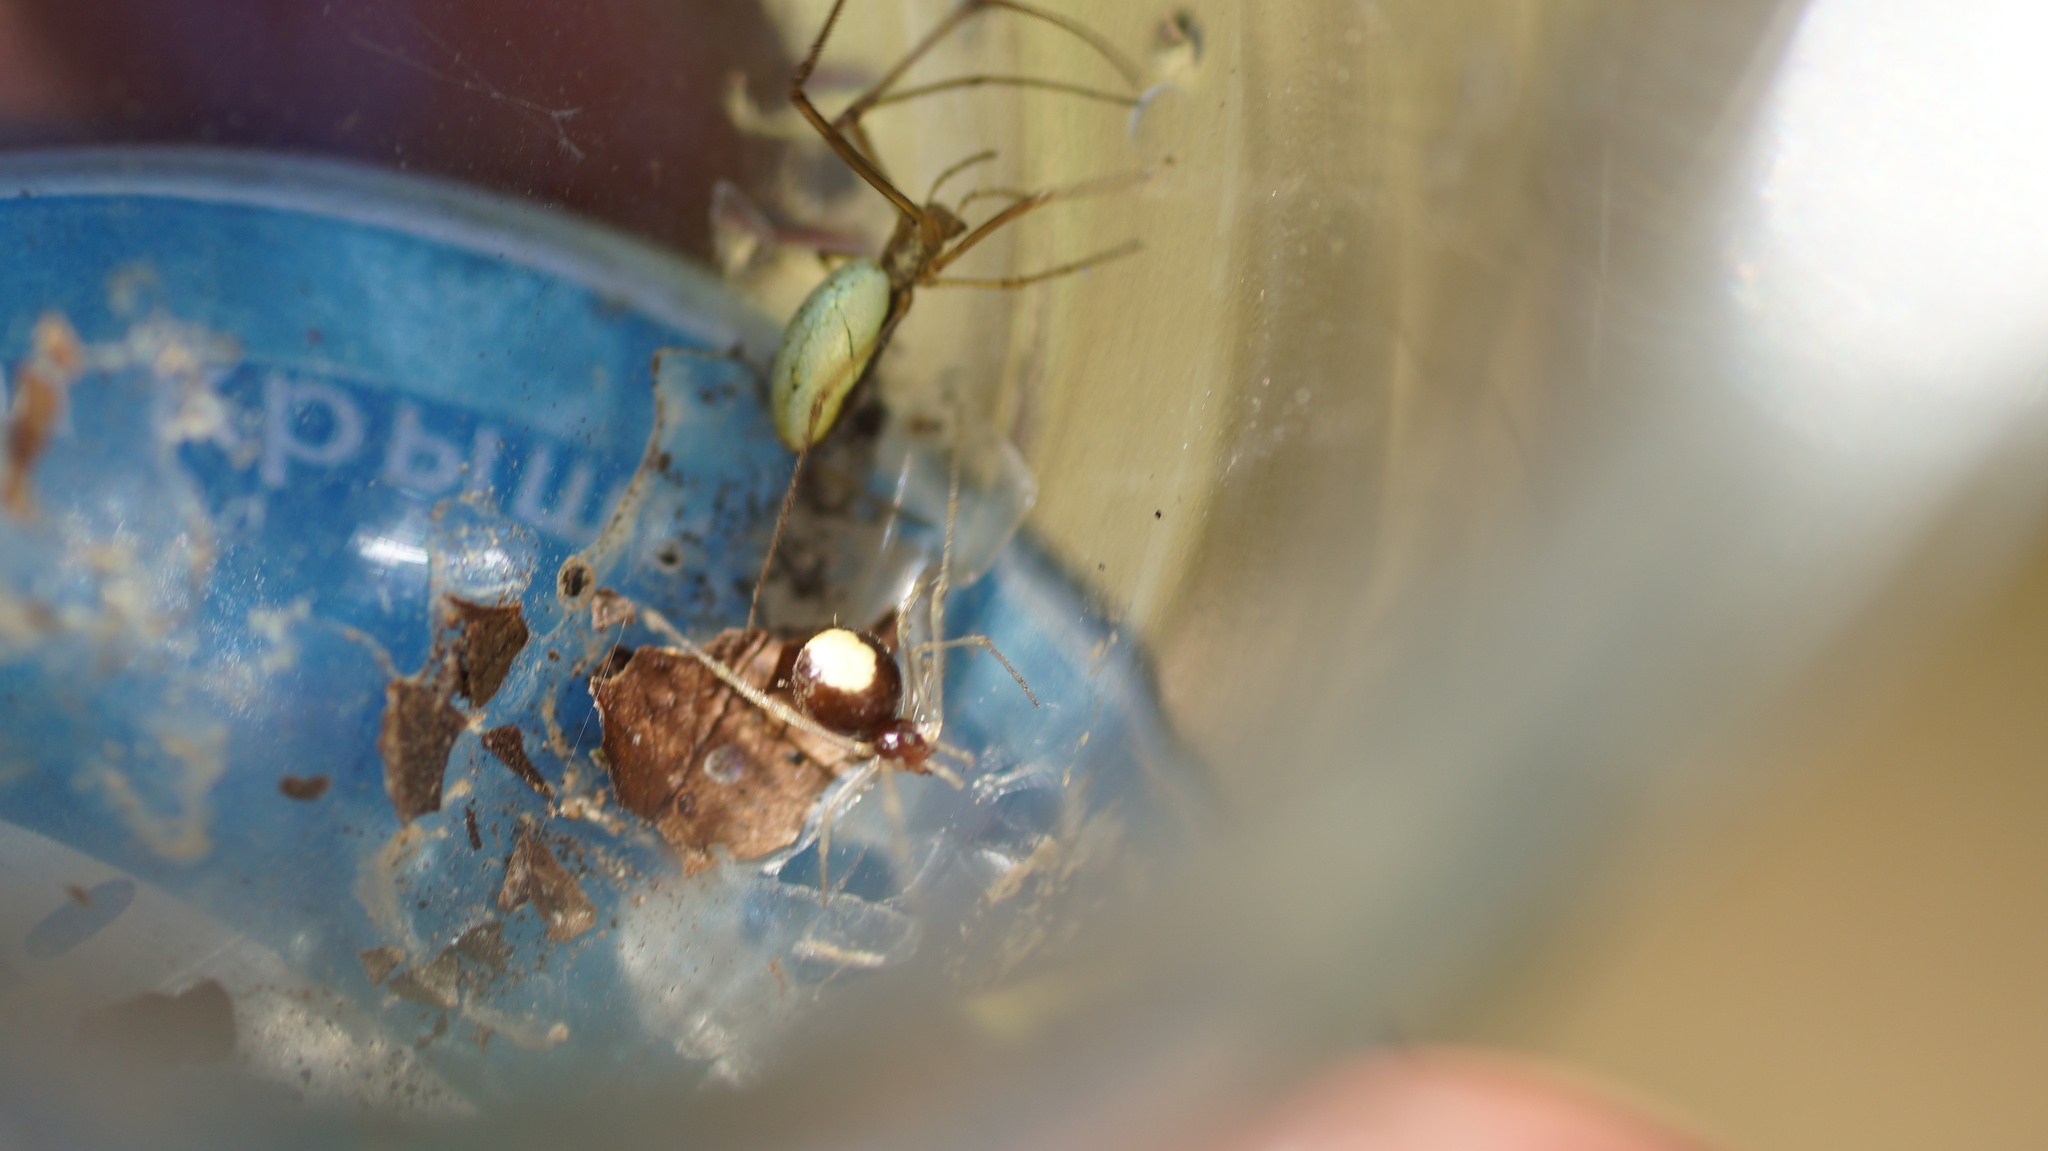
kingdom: Animalia
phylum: Arthropoda
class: Arachnida
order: Araneae
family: Theridiidae
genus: Neottiura
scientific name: Neottiura bimaculata
